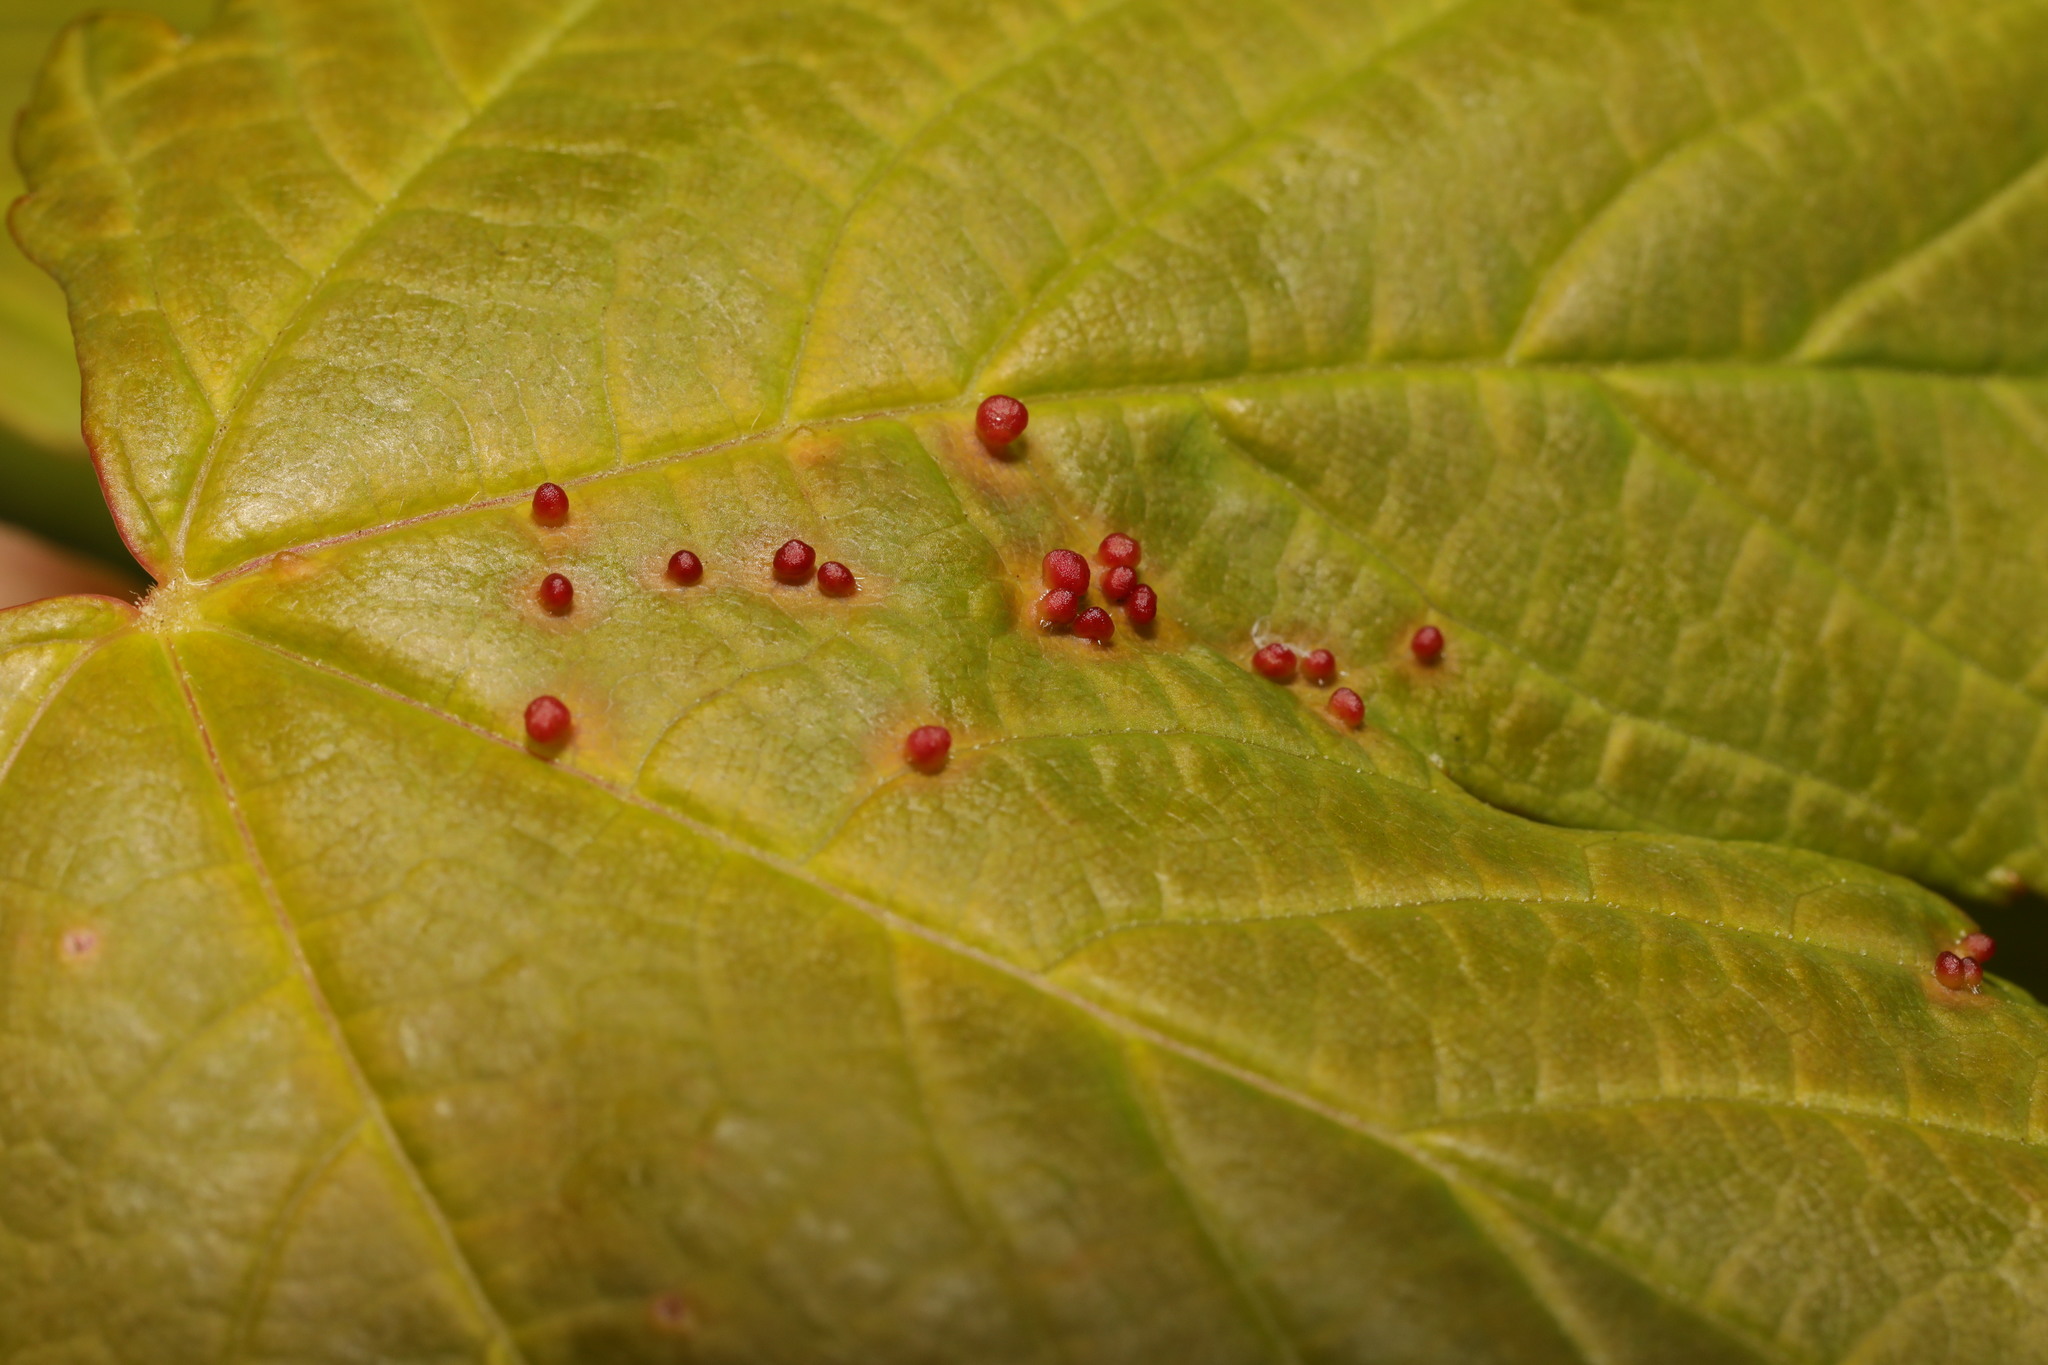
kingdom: Animalia
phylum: Arthropoda
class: Arachnida
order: Trombidiformes
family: Eriophyidae
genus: Aceria
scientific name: Aceria cephaloneus
